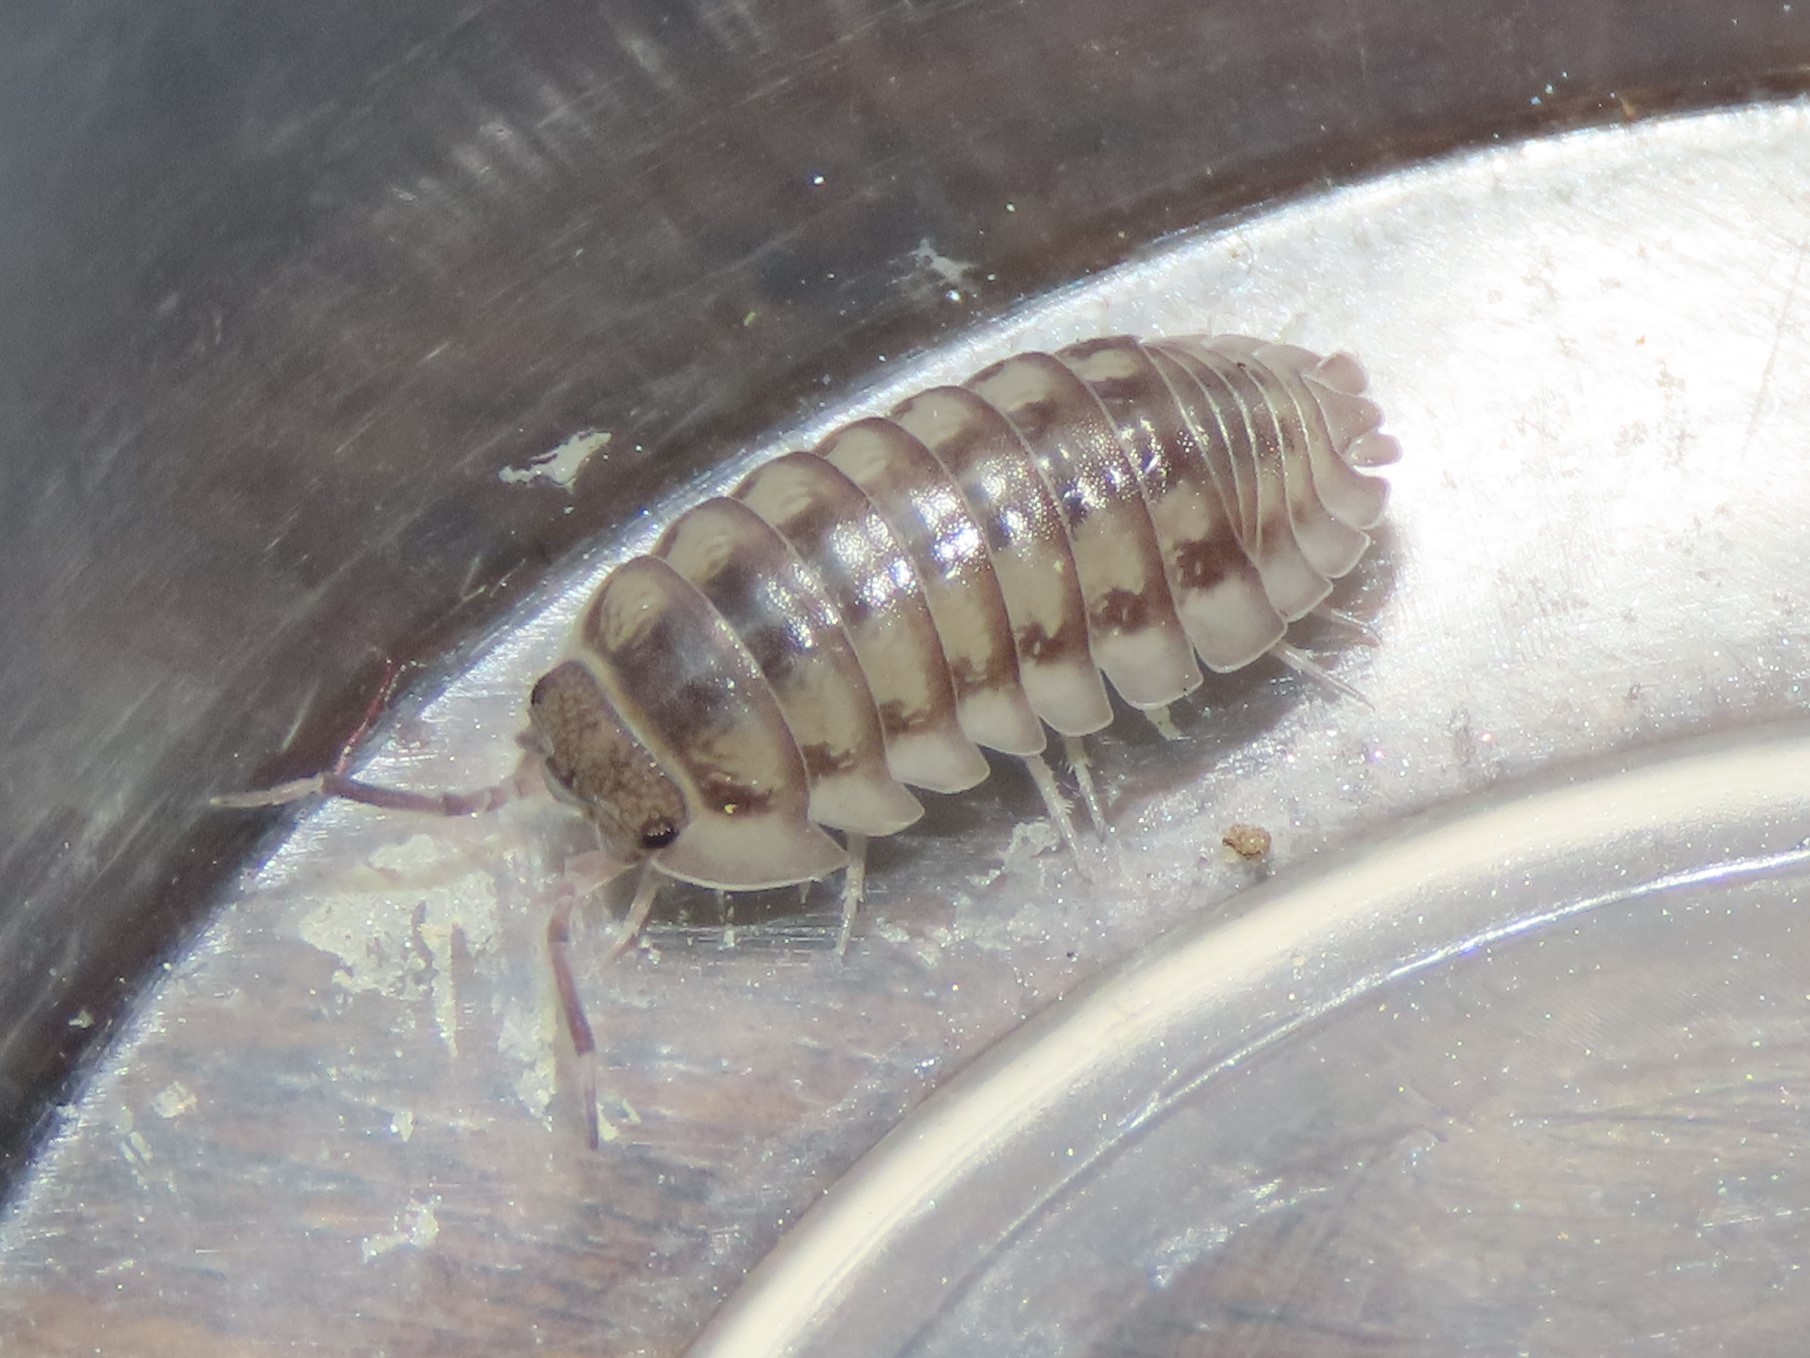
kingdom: Animalia
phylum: Arthropoda
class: Malacostraca
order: Isopoda
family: Armadillidiidae
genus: Armadillidium
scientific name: Armadillidium nasatum
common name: Isopod
